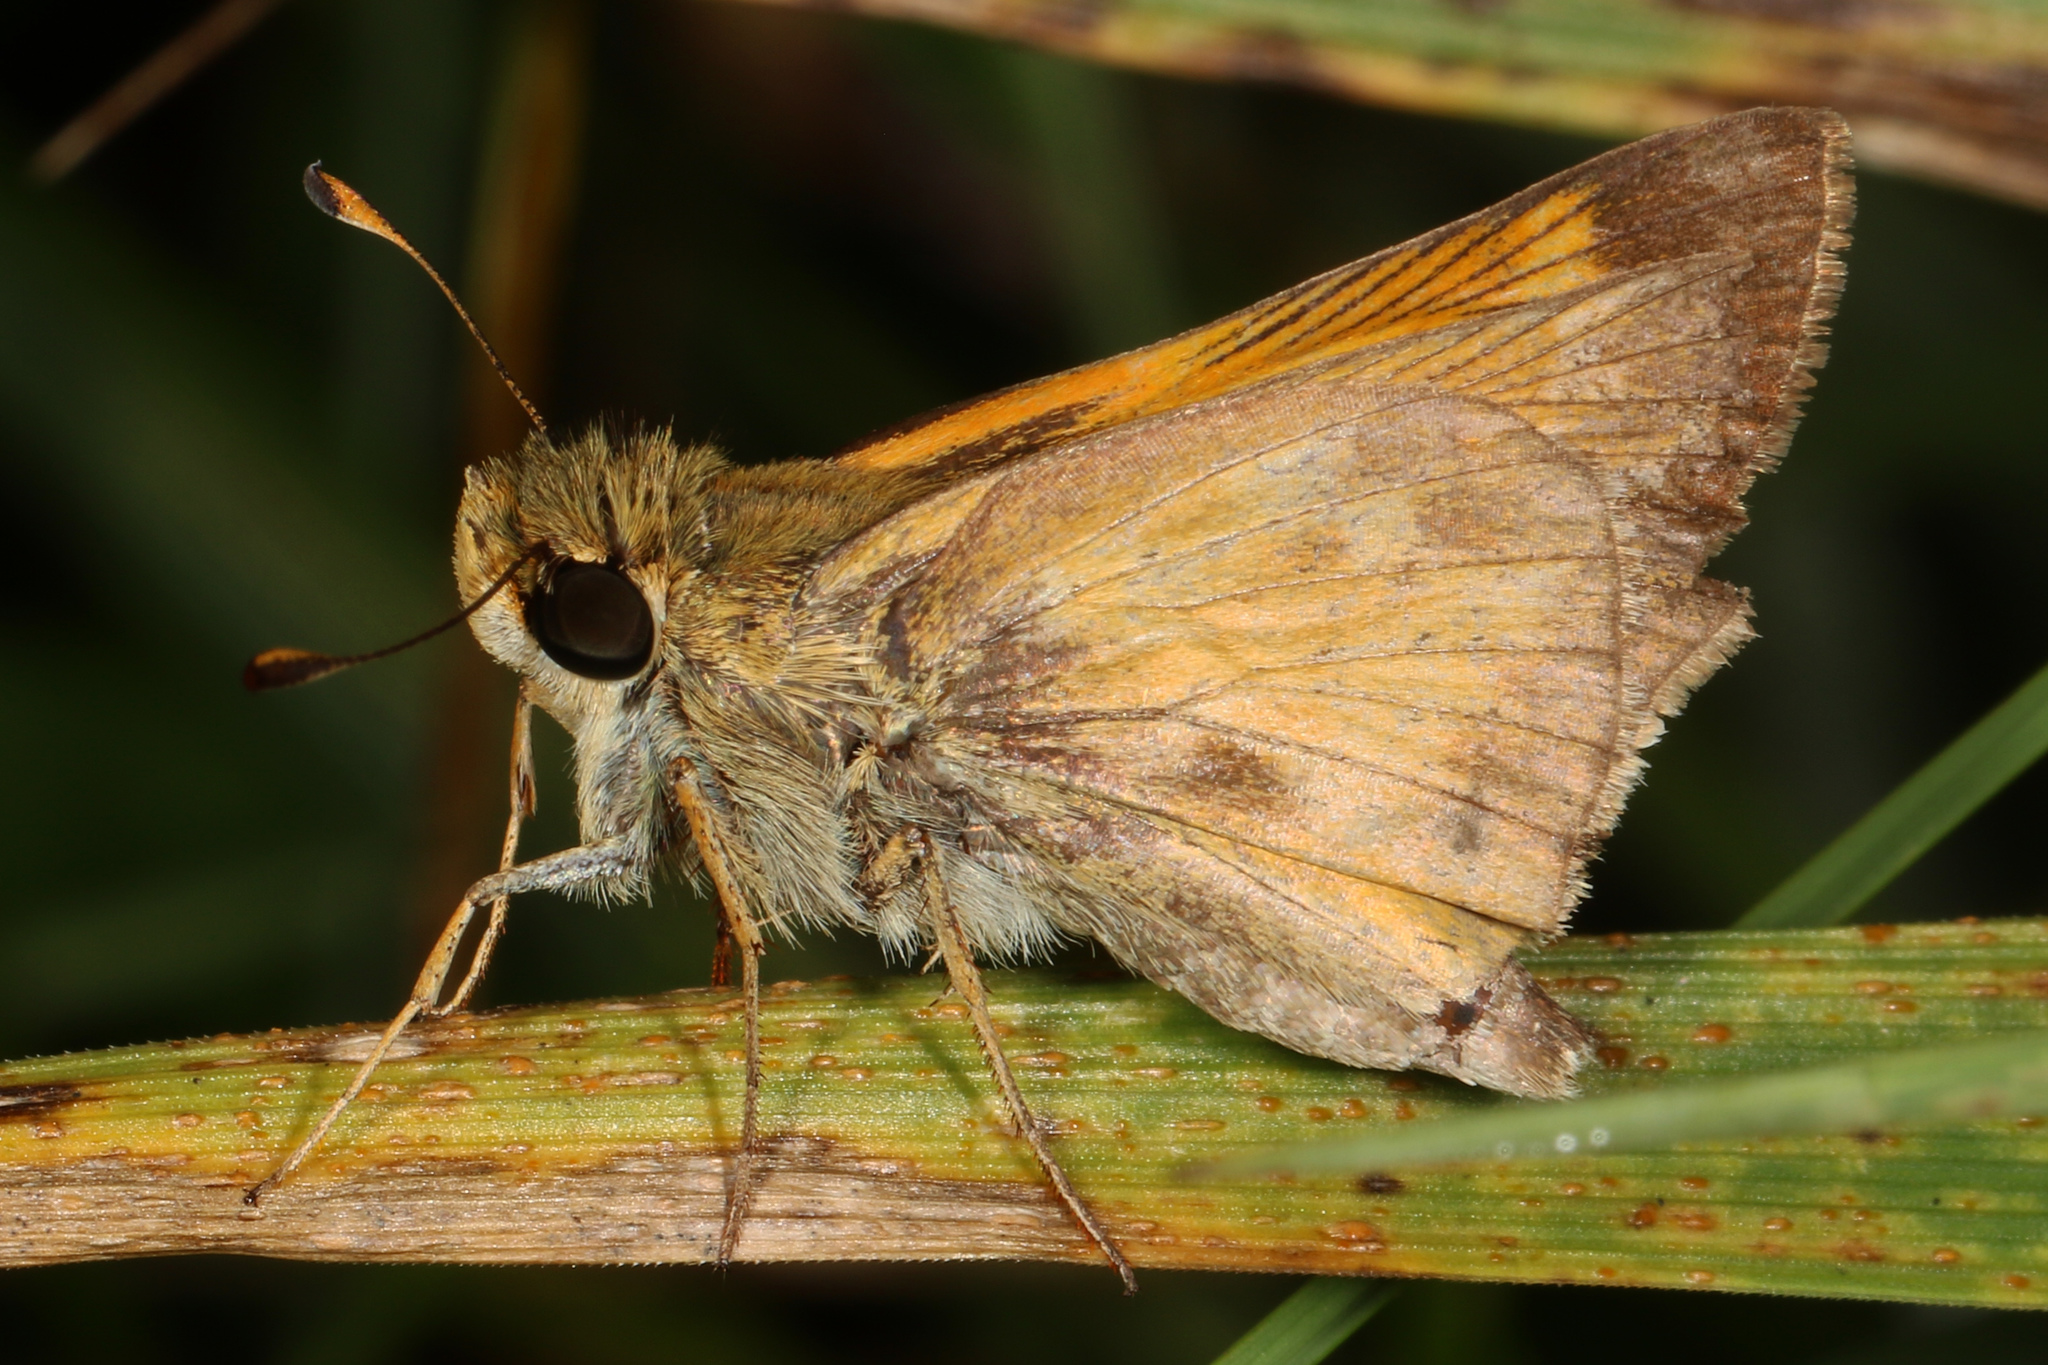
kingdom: Animalia
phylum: Arthropoda
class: Insecta
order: Lepidoptera
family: Hesperiidae
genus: Atalopedes
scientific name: Atalopedes
